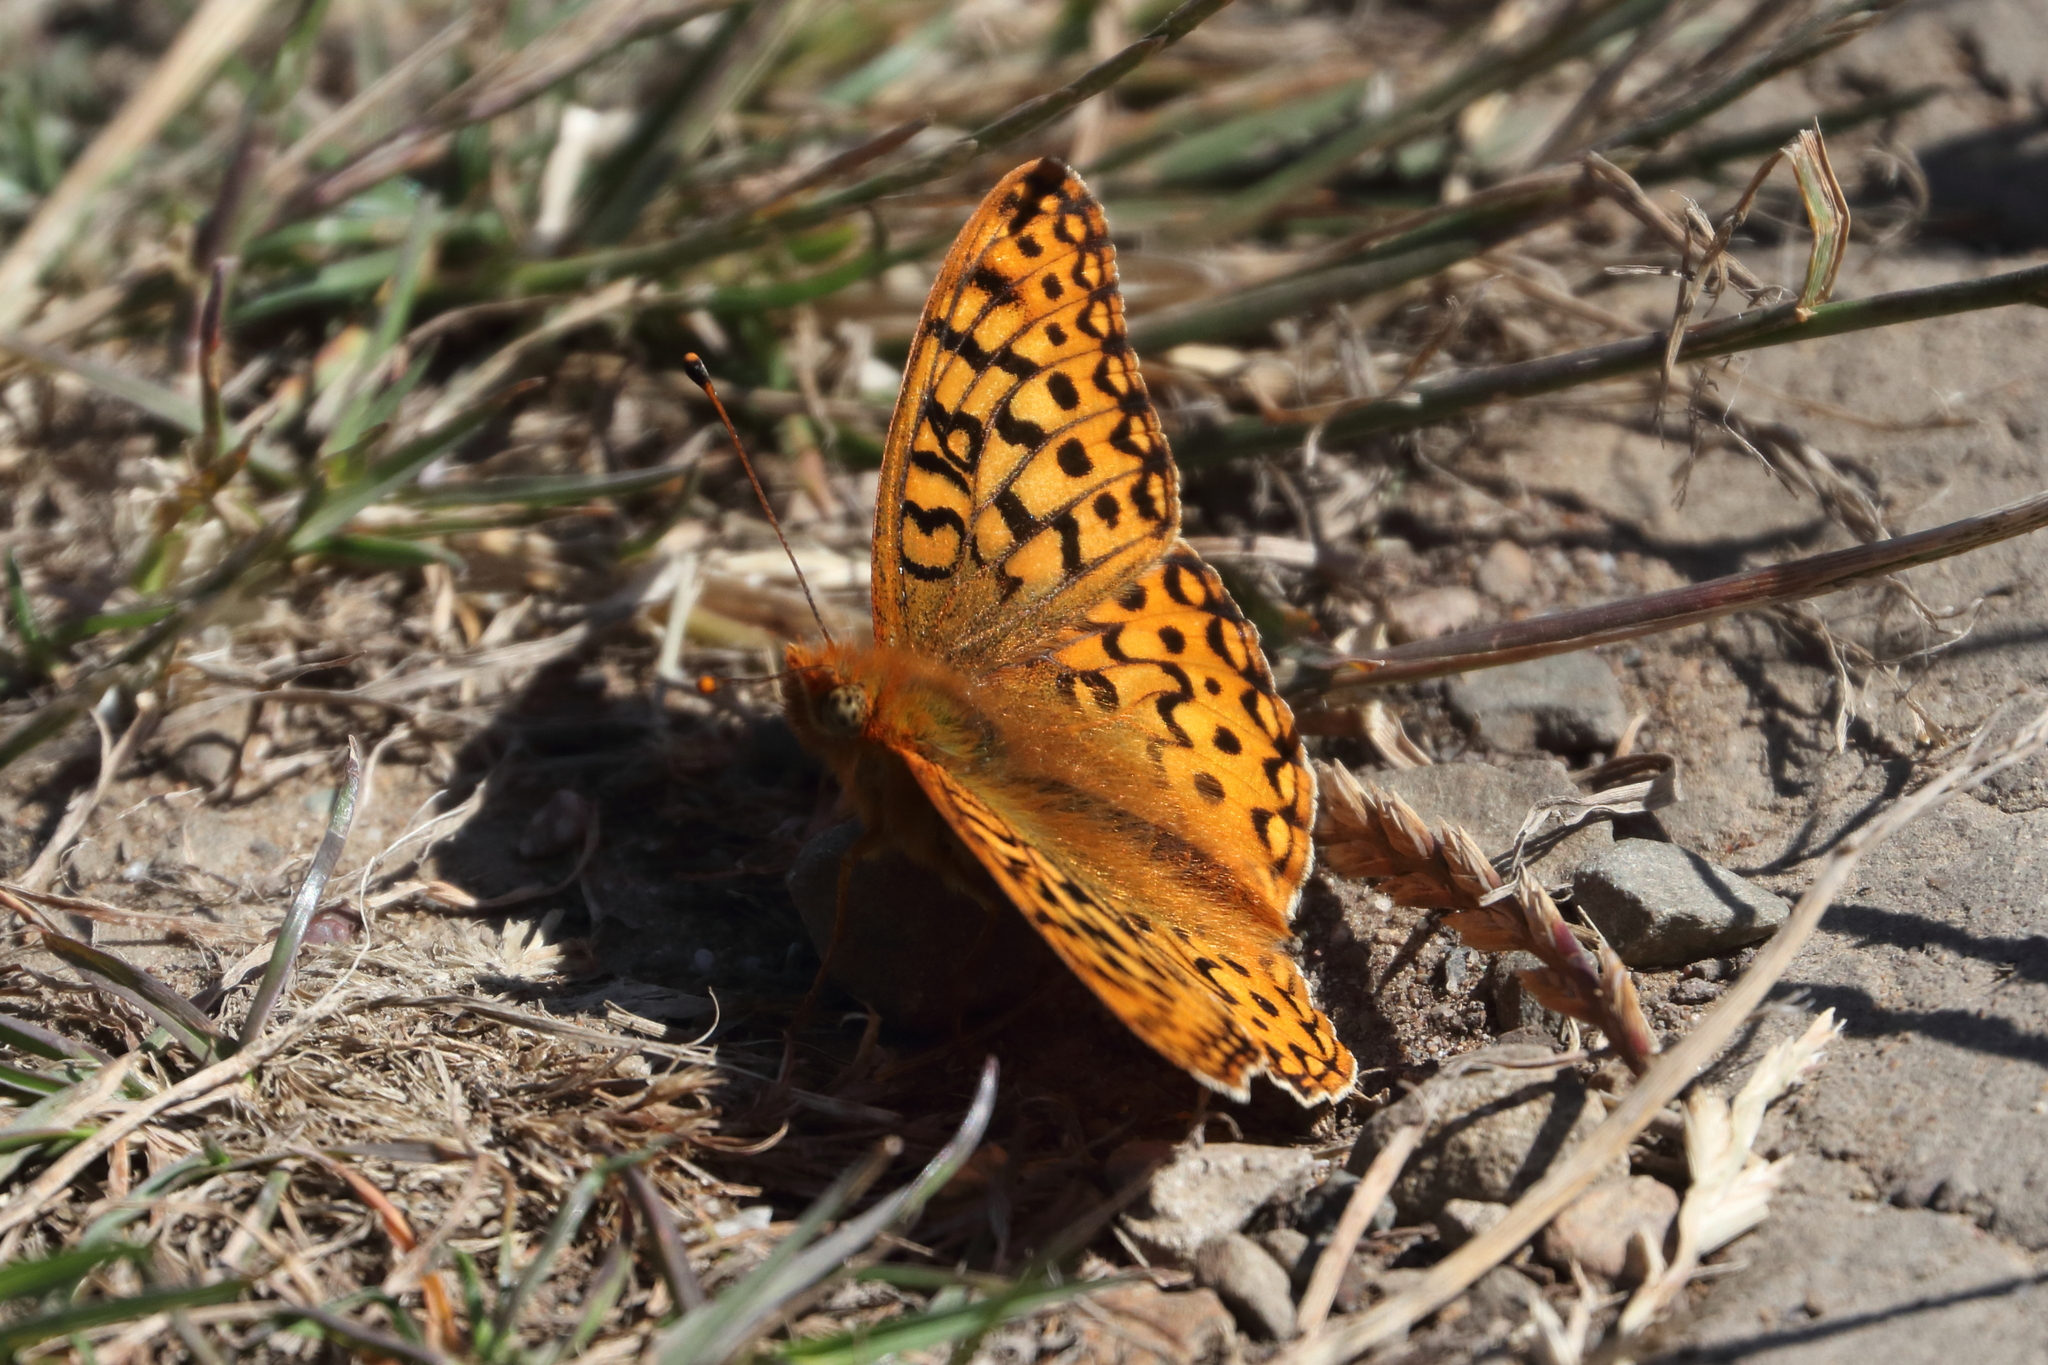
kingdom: Animalia
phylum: Arthropoda
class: Insecta
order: Lepidoptera
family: Nymphalidae
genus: Speyeria
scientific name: Speyeria zerene
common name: Zerene fritillary
